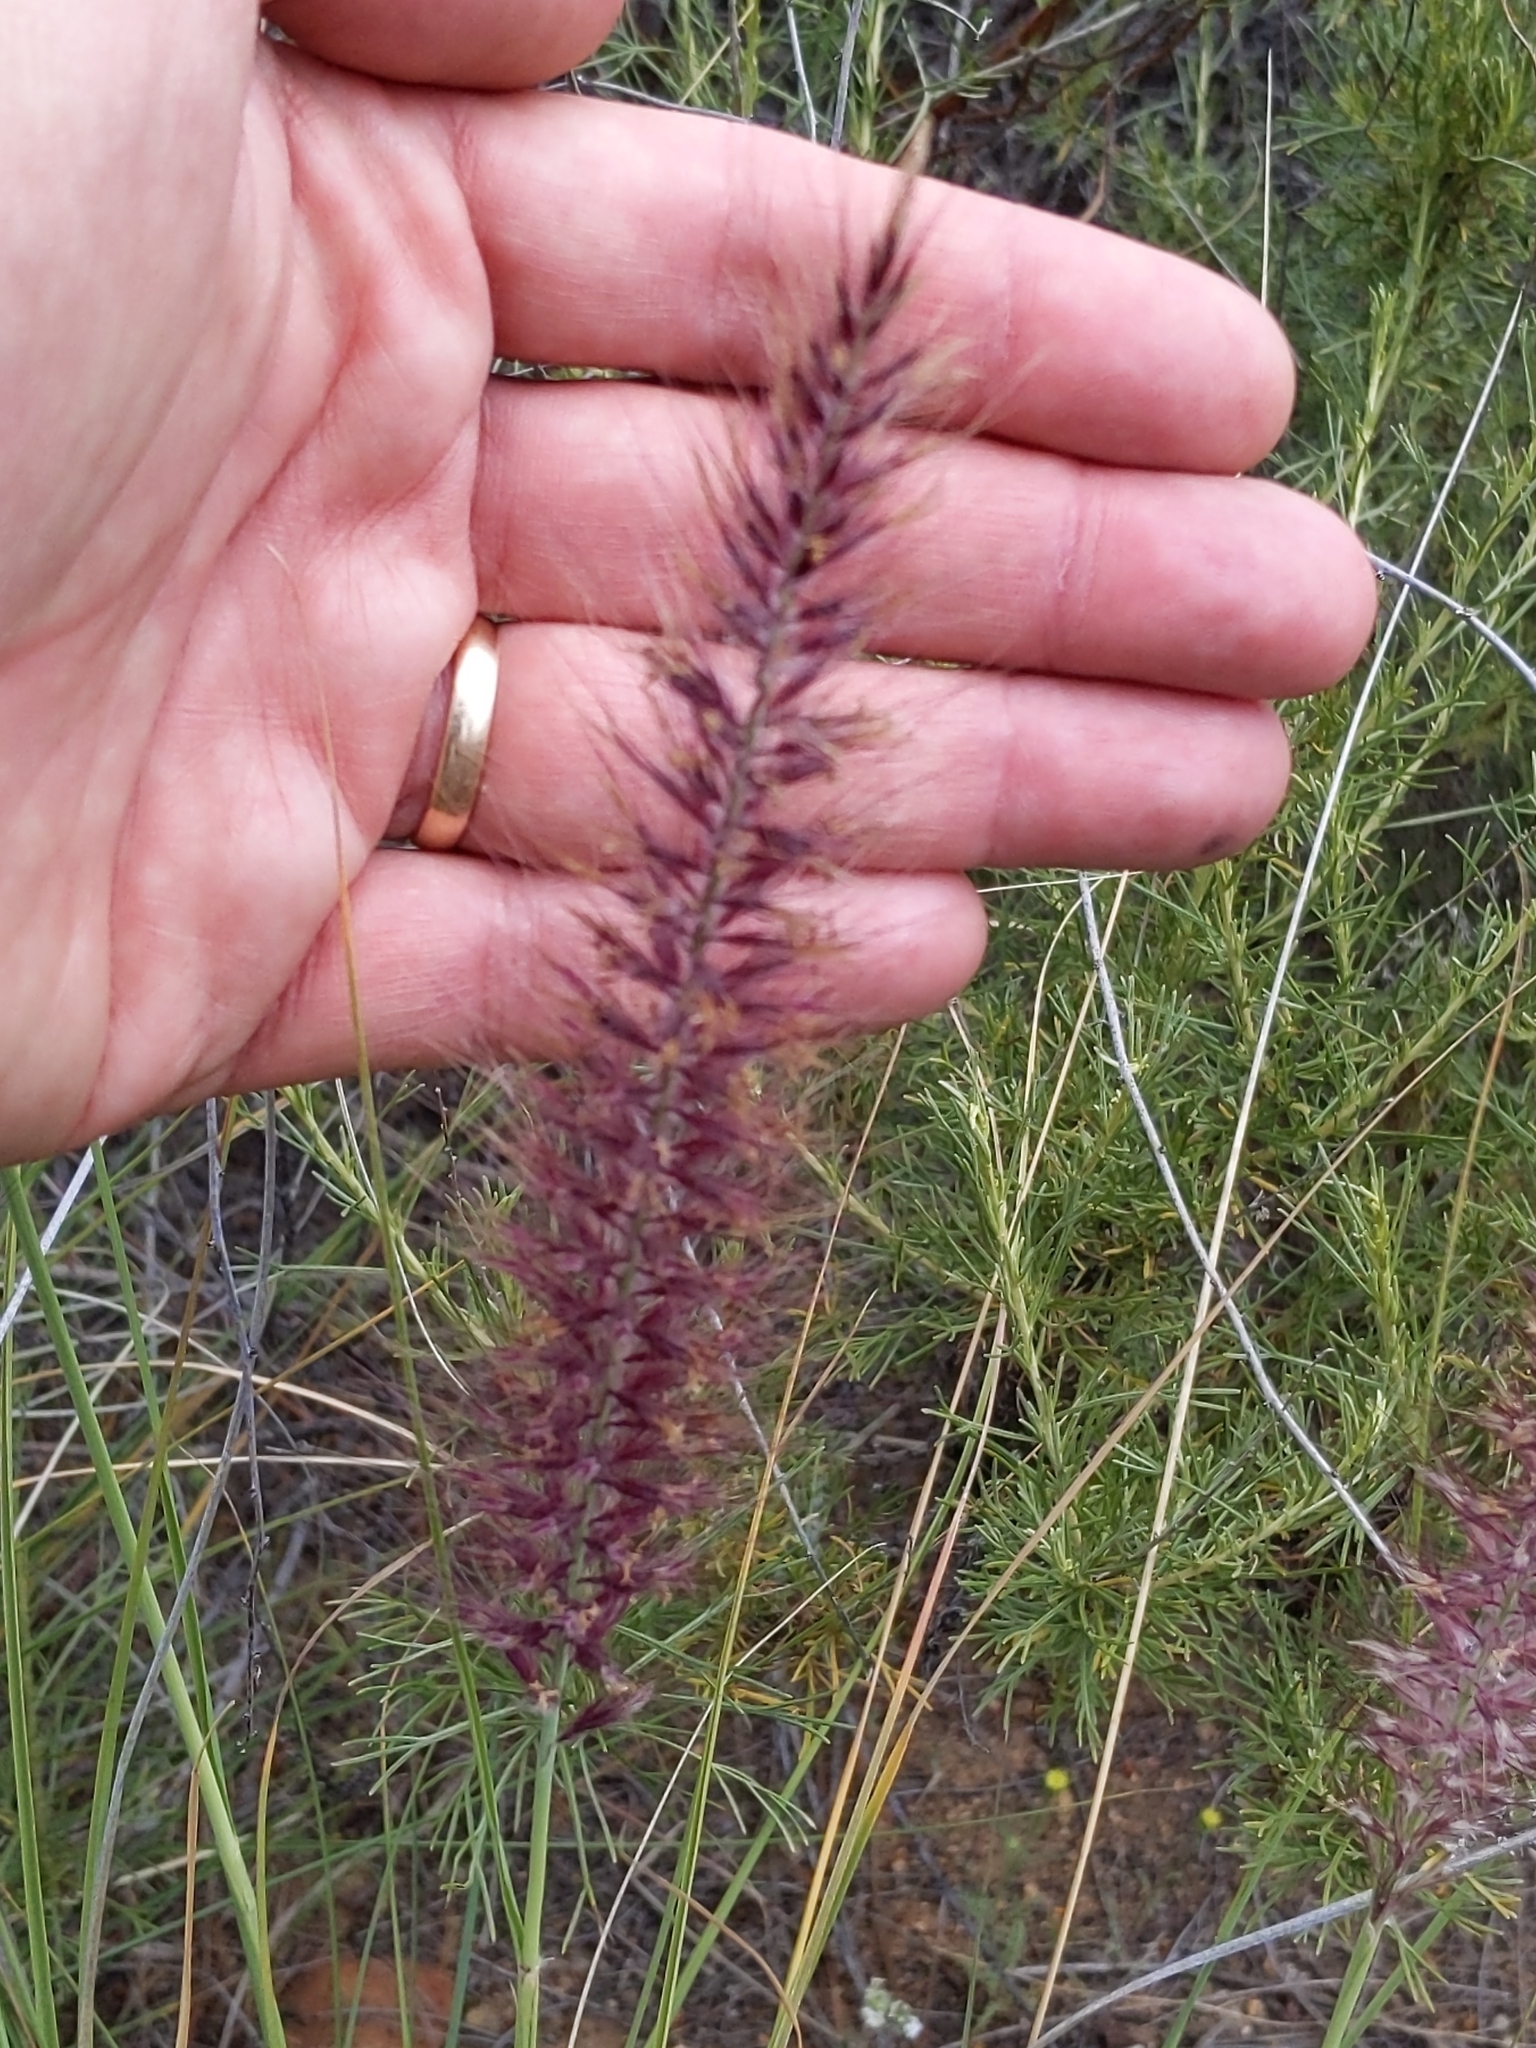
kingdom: Plantae
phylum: Tracheophyta
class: Liliopsida
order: Poales
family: Poaceae
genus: Cenchrus
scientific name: Cenchrus setaceus
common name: Crimson fountaingrass
